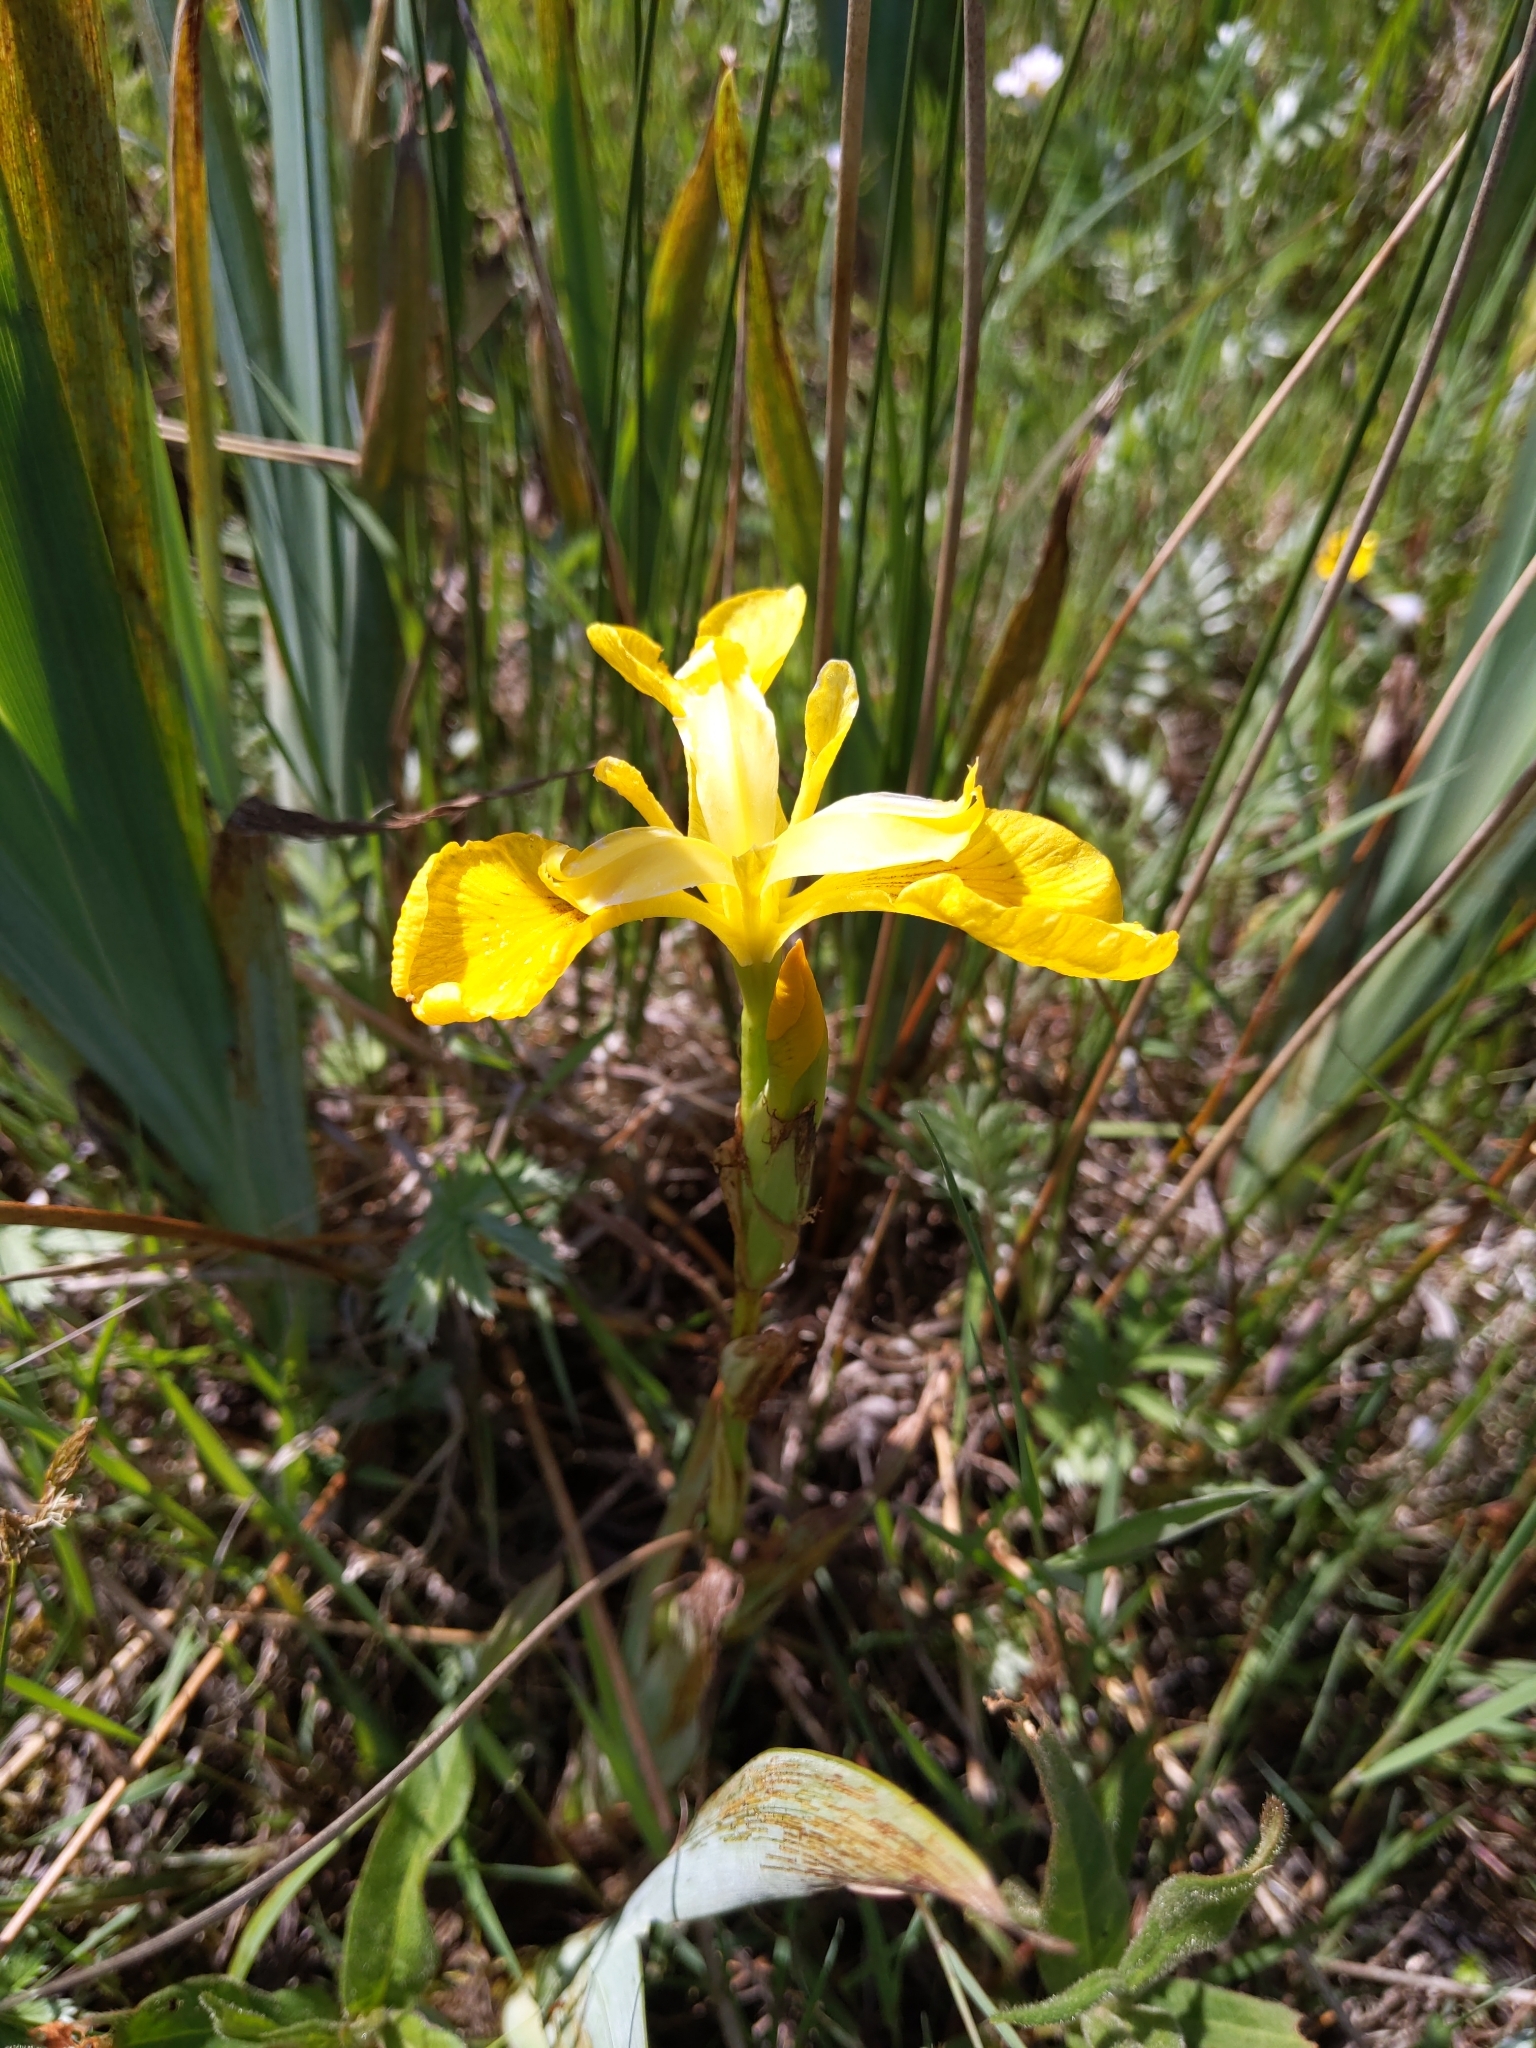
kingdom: Plantae
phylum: Tracheophyta
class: Liliopsida
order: Asparagales
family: Iridaceae
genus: Iris
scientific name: Iris pseudacorus
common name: Yellow flag
